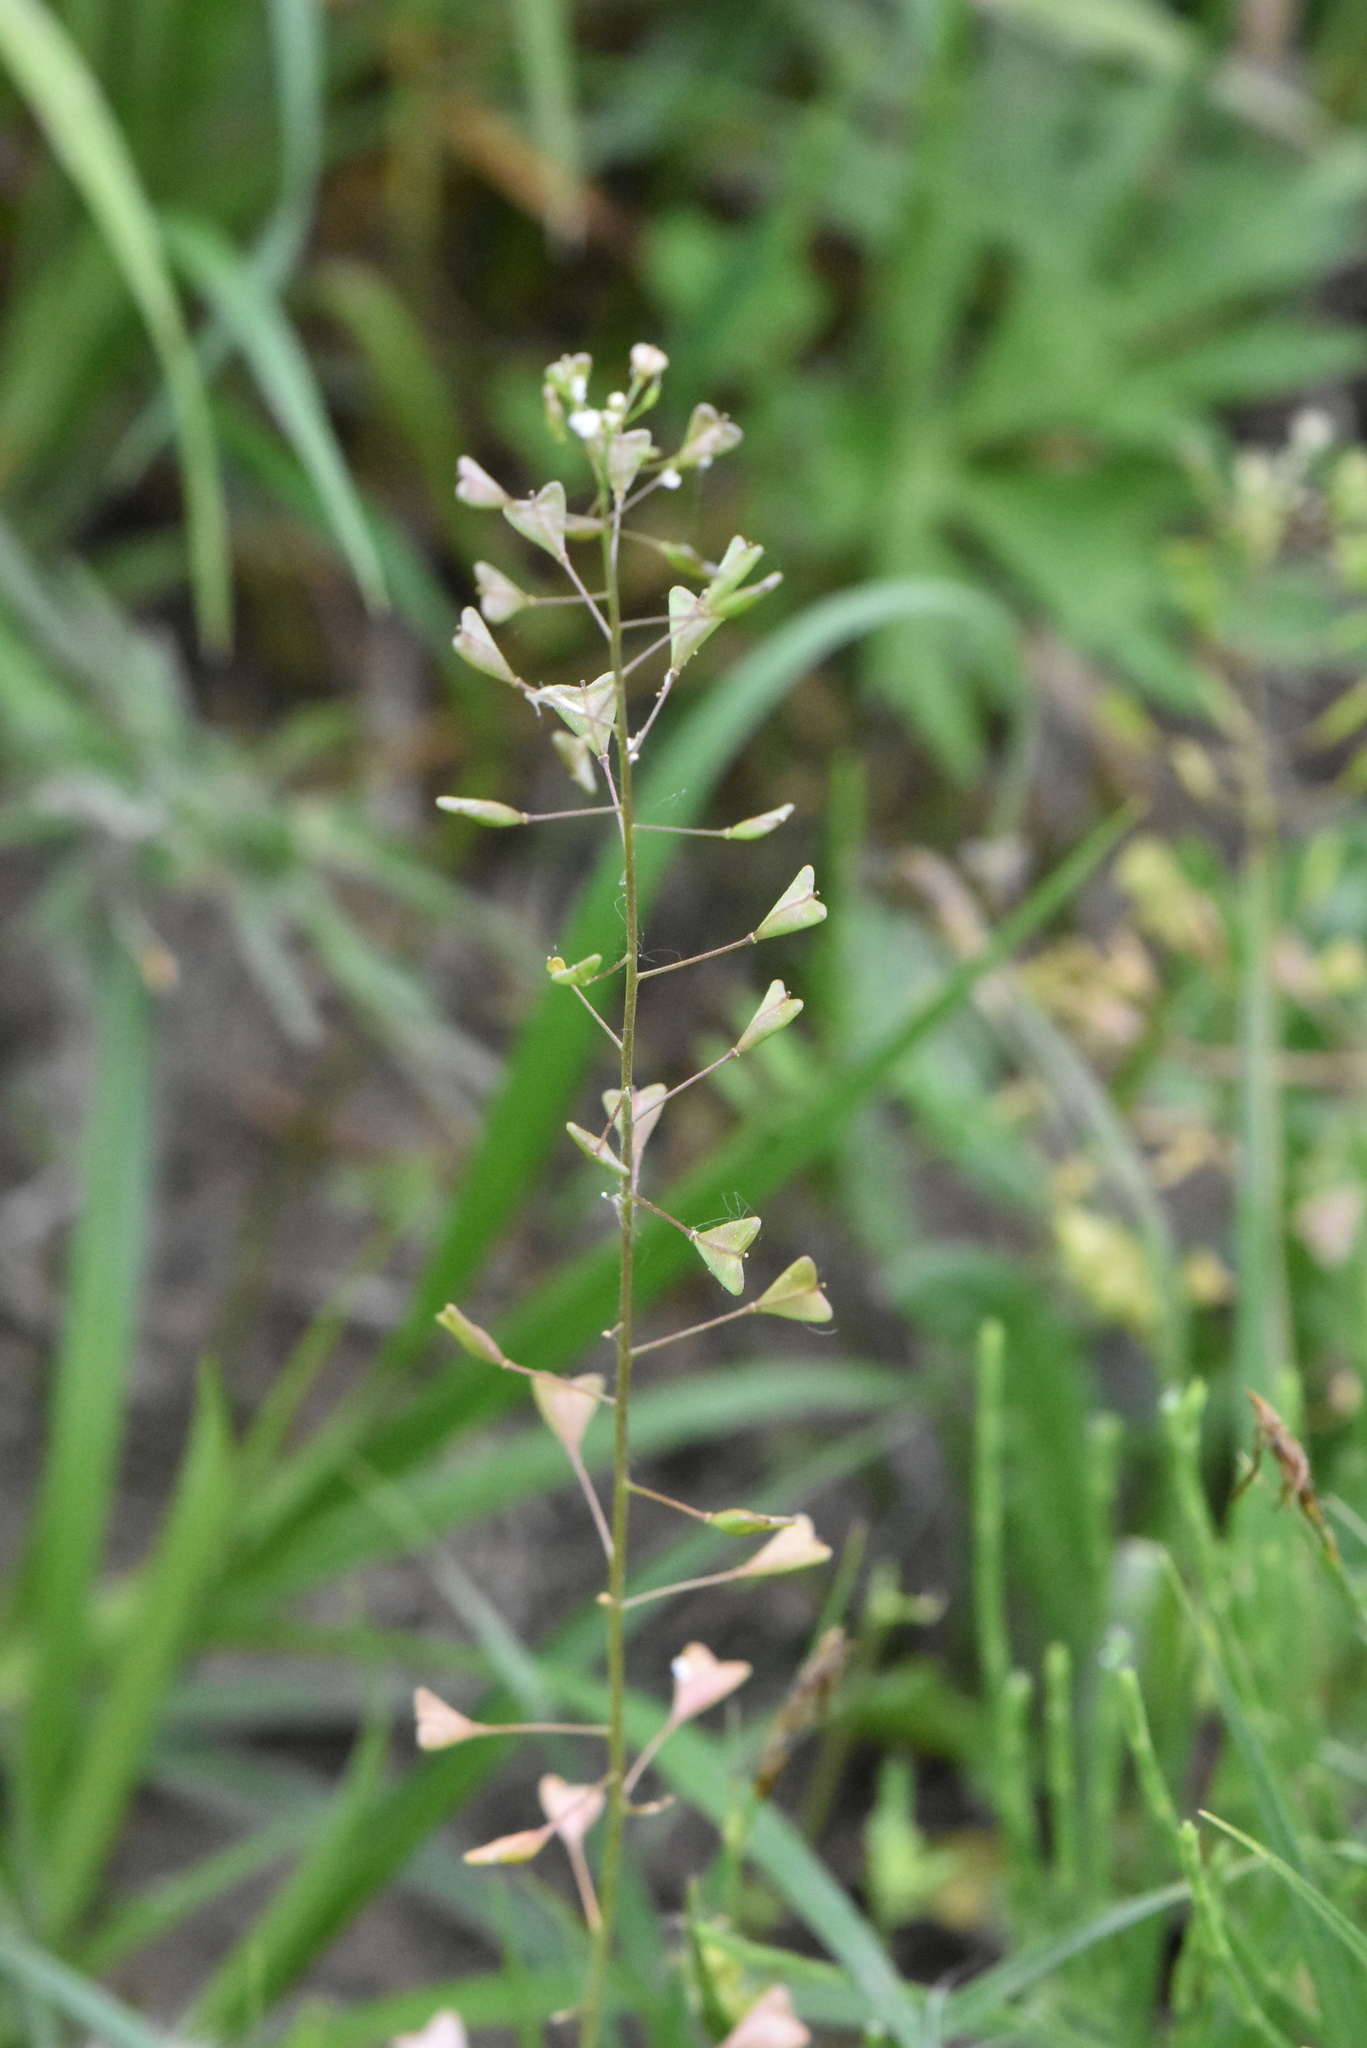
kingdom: Plantae
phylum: Tracheophyta
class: Magnoliopsida
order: Brassicales
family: Brassicaceae
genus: Capsella
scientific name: Capsella bursa-pastoris
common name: Shepherd's purse
